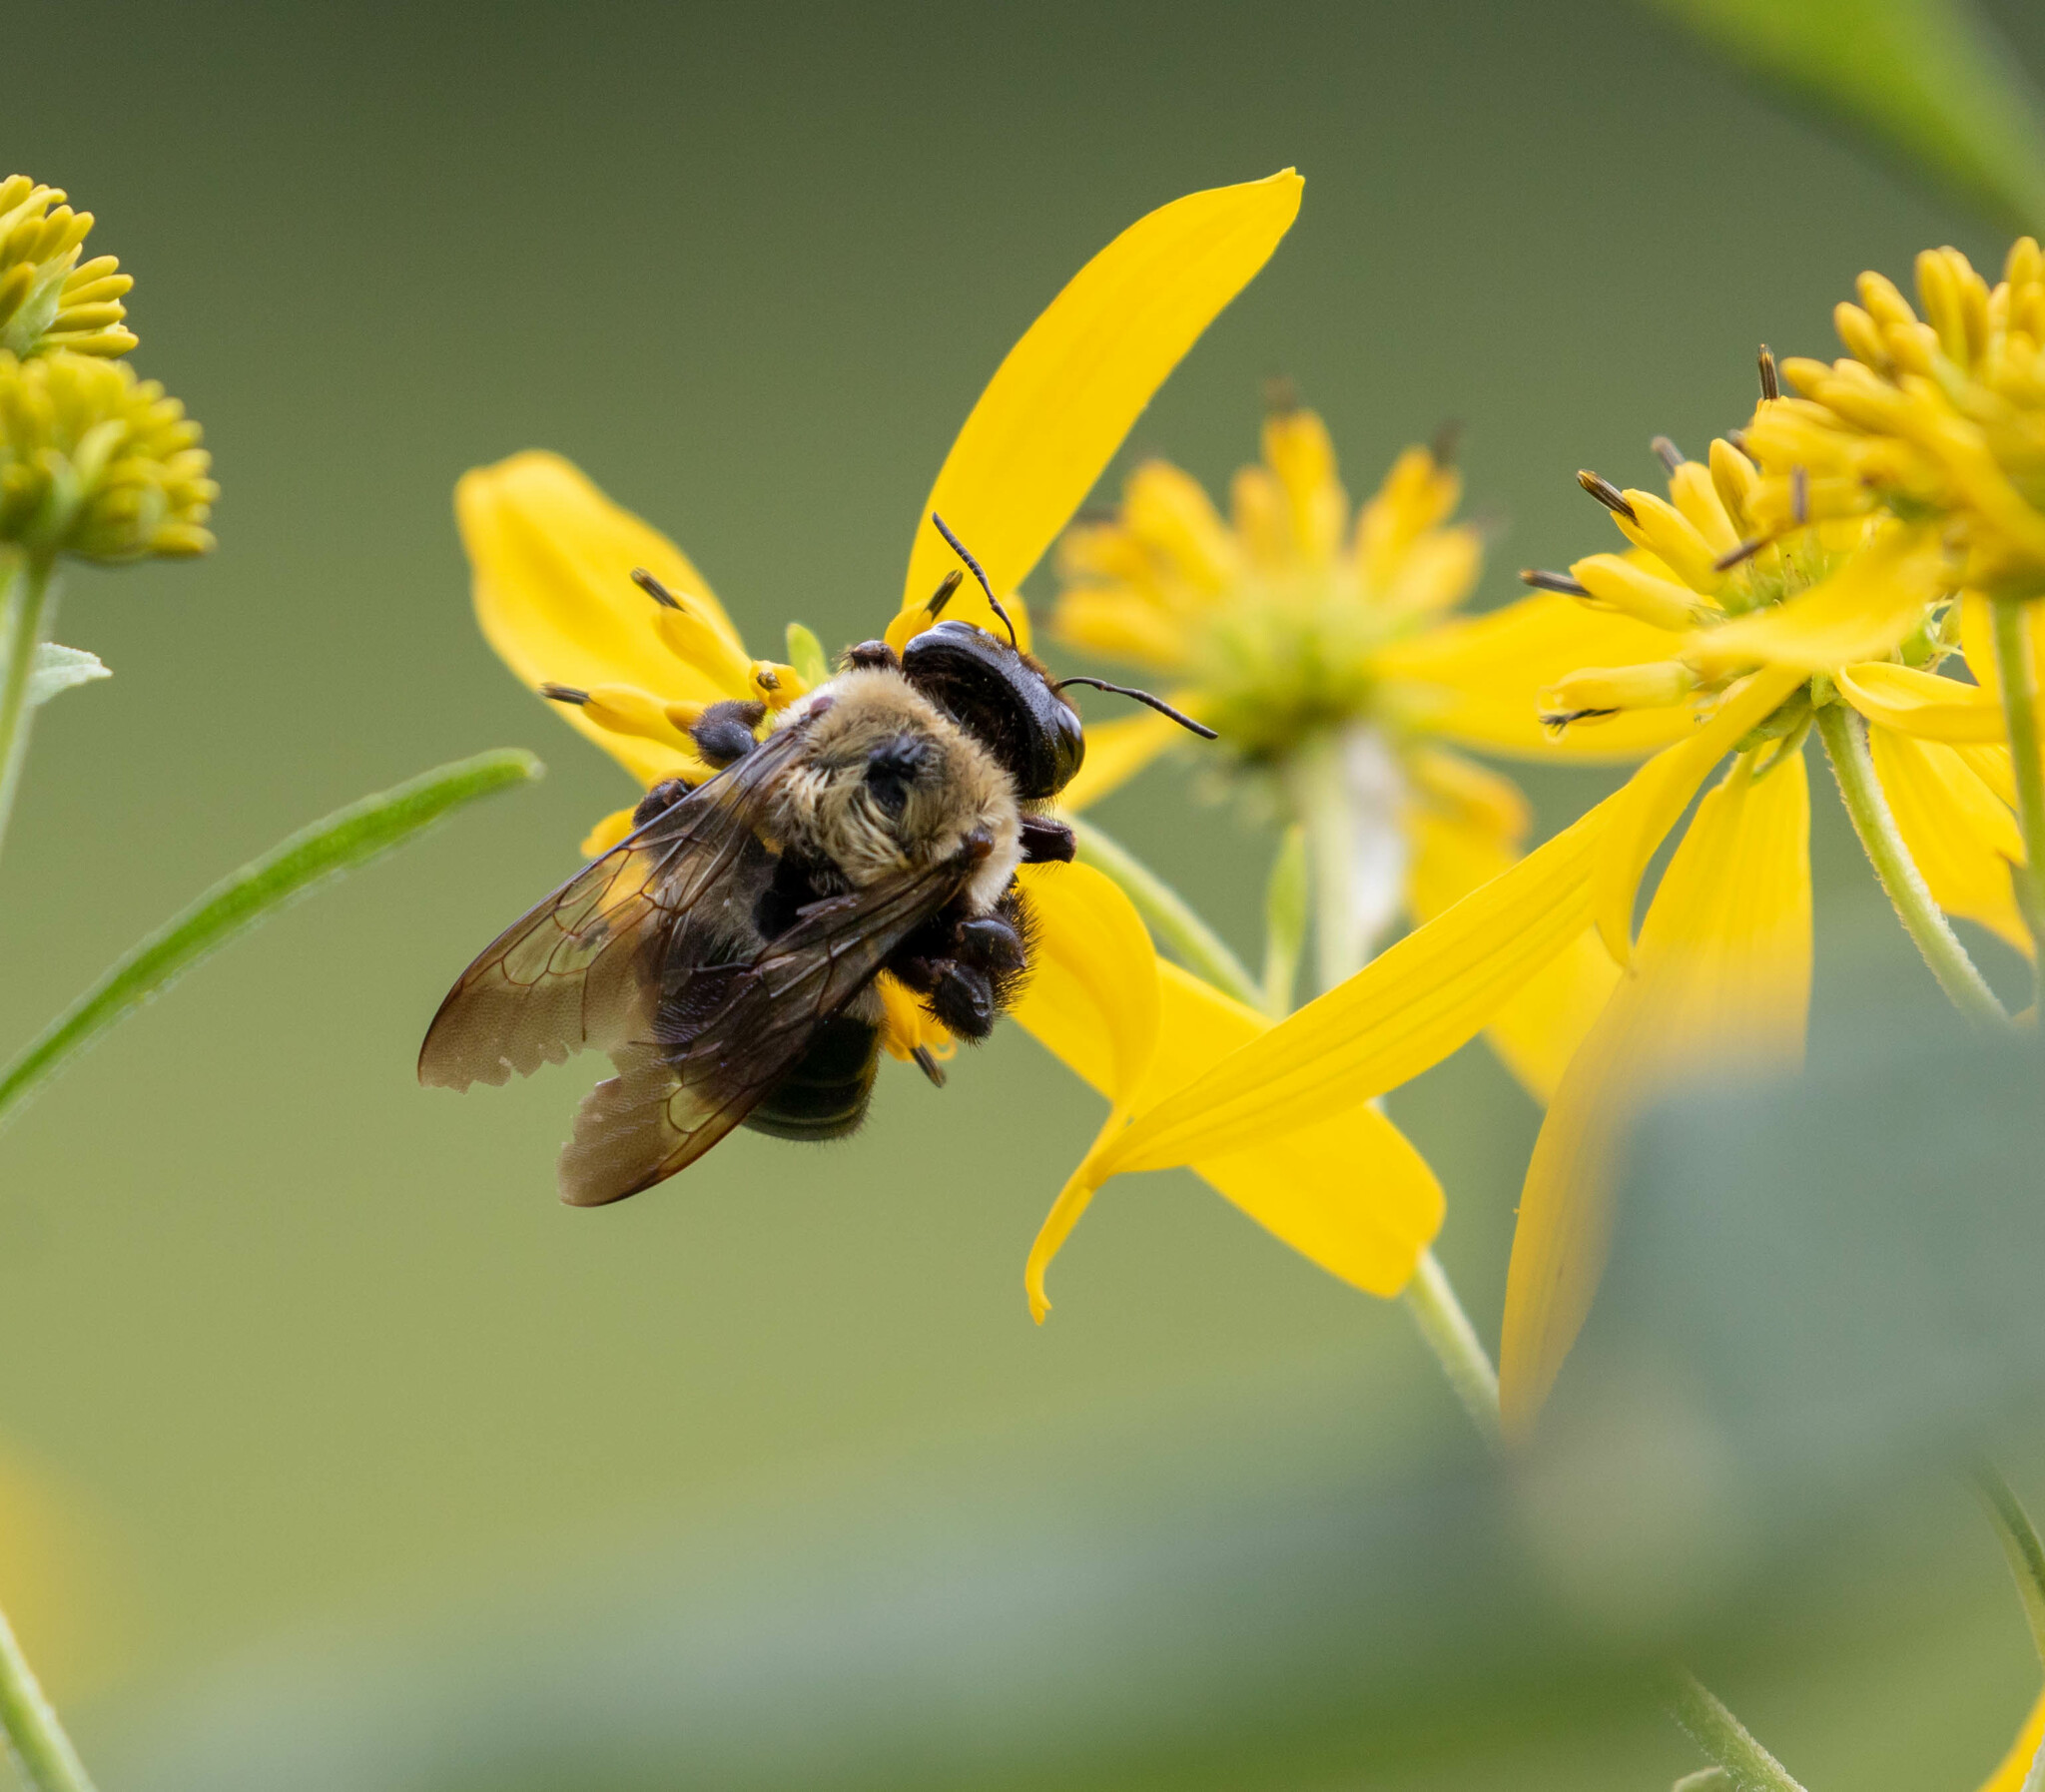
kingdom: Animalia
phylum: Arthropoda
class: Insecta
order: Hymenoptera
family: Apidae
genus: Xylocopa
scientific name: Xylocopa virginica
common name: Carpenter bee
